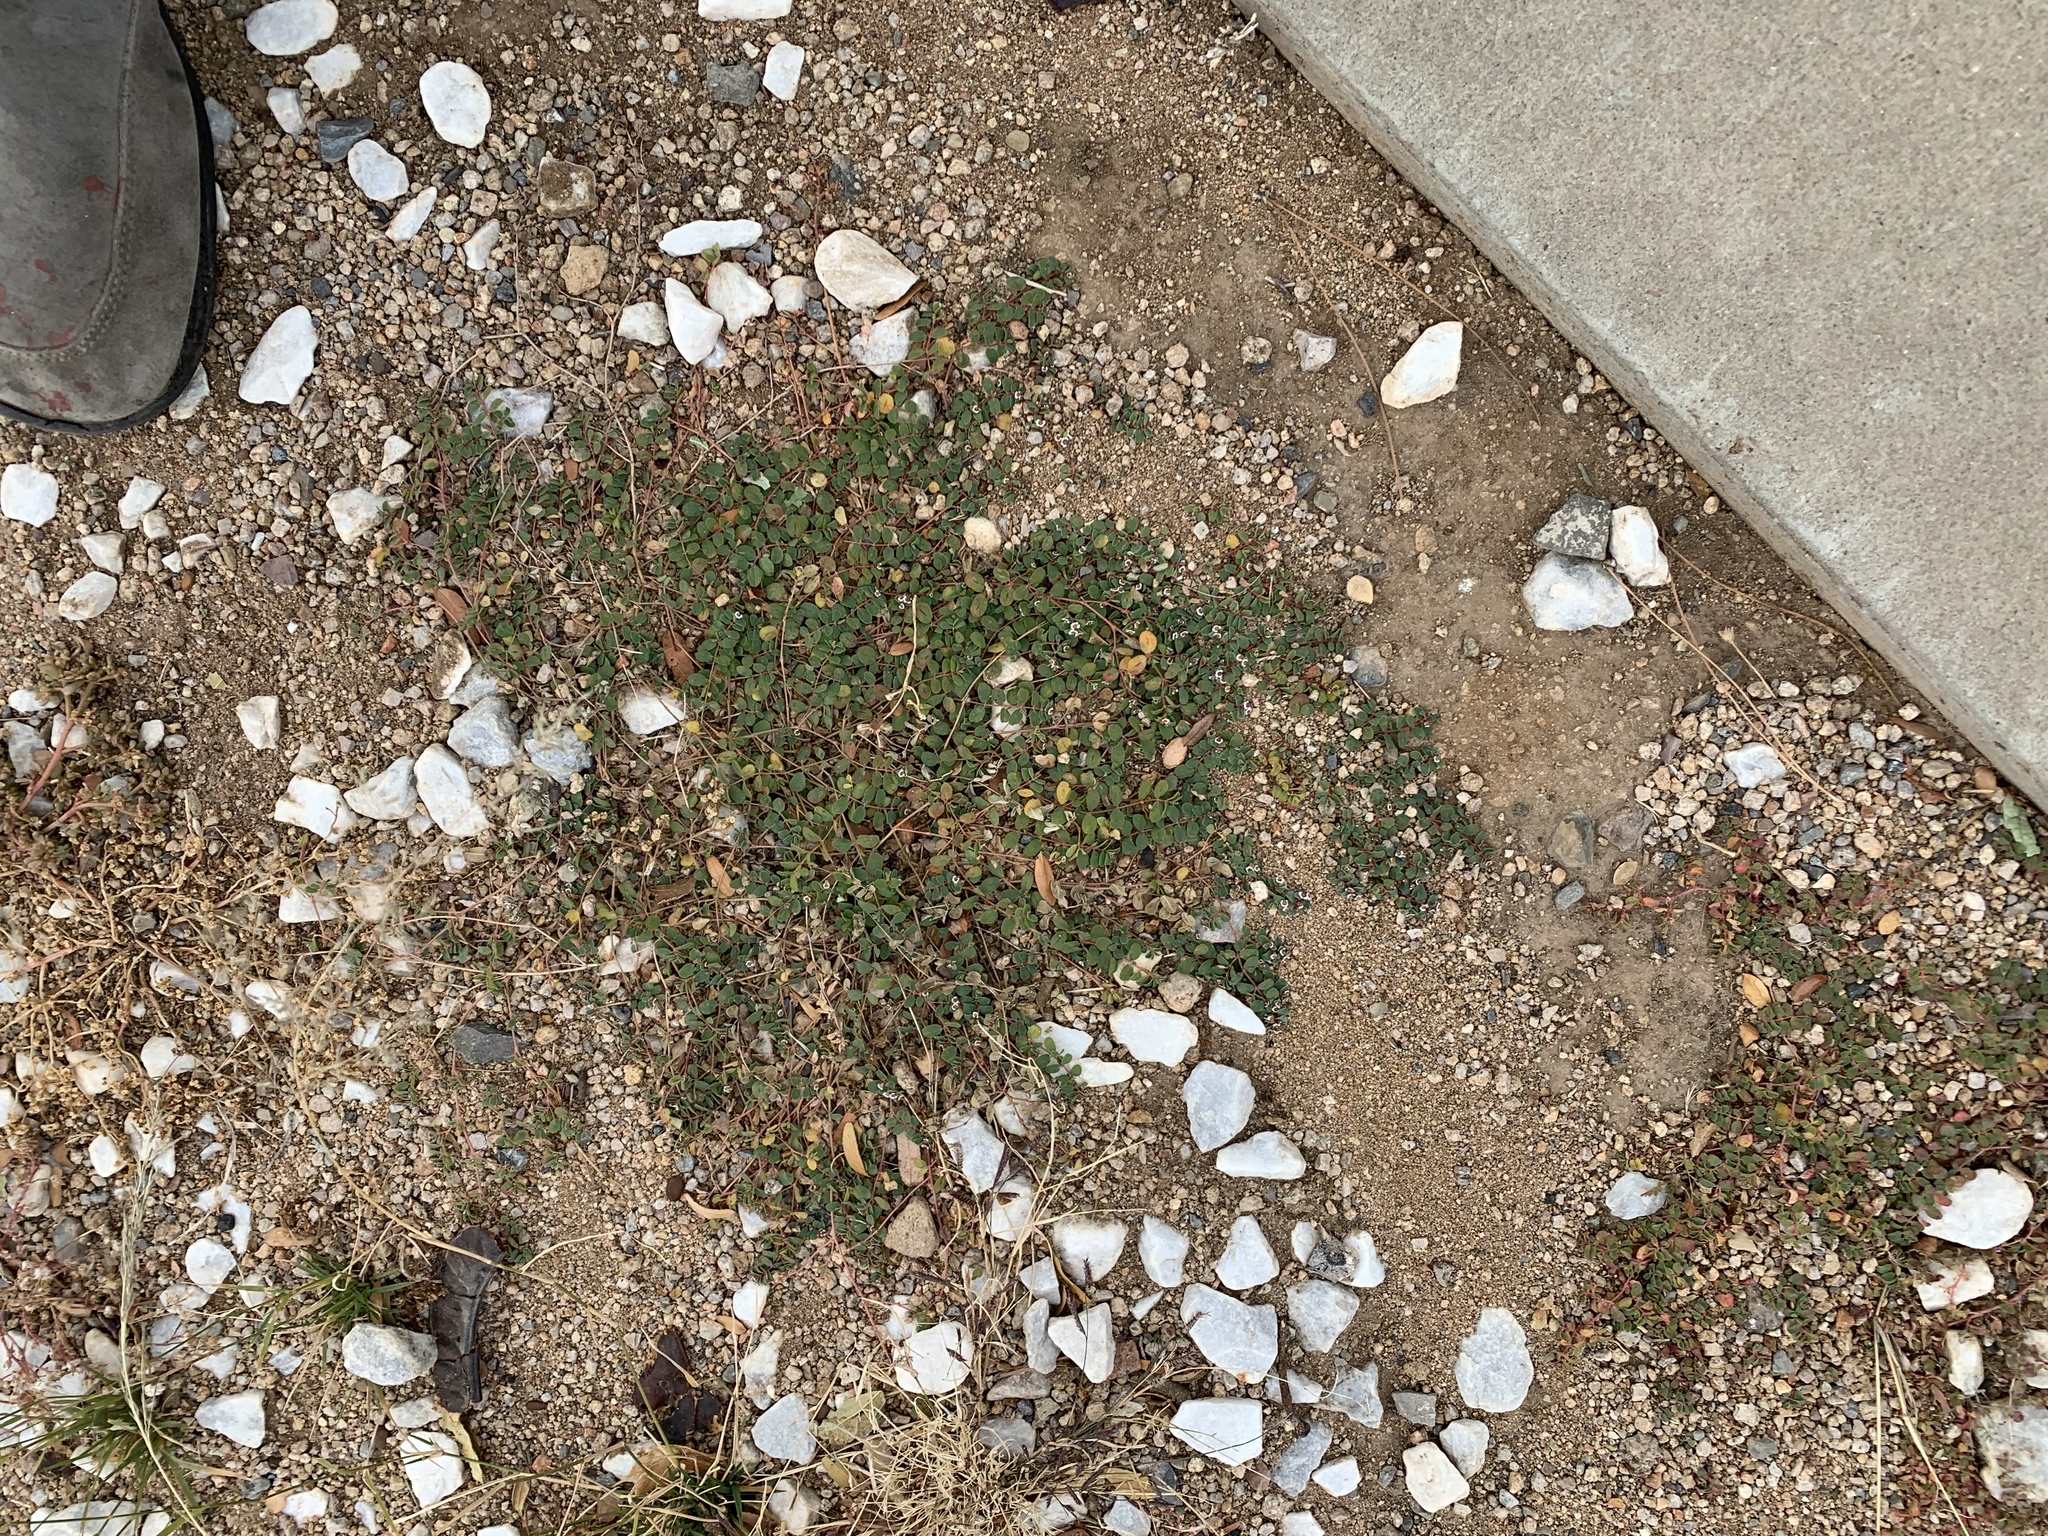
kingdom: Plantae
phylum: Tracheophyta
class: Magnoliopsida
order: Malpighiales
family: Euphorbiaceae
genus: Euphorbia
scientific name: Euphorbia albomarginata
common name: Whitemargin sandmat
